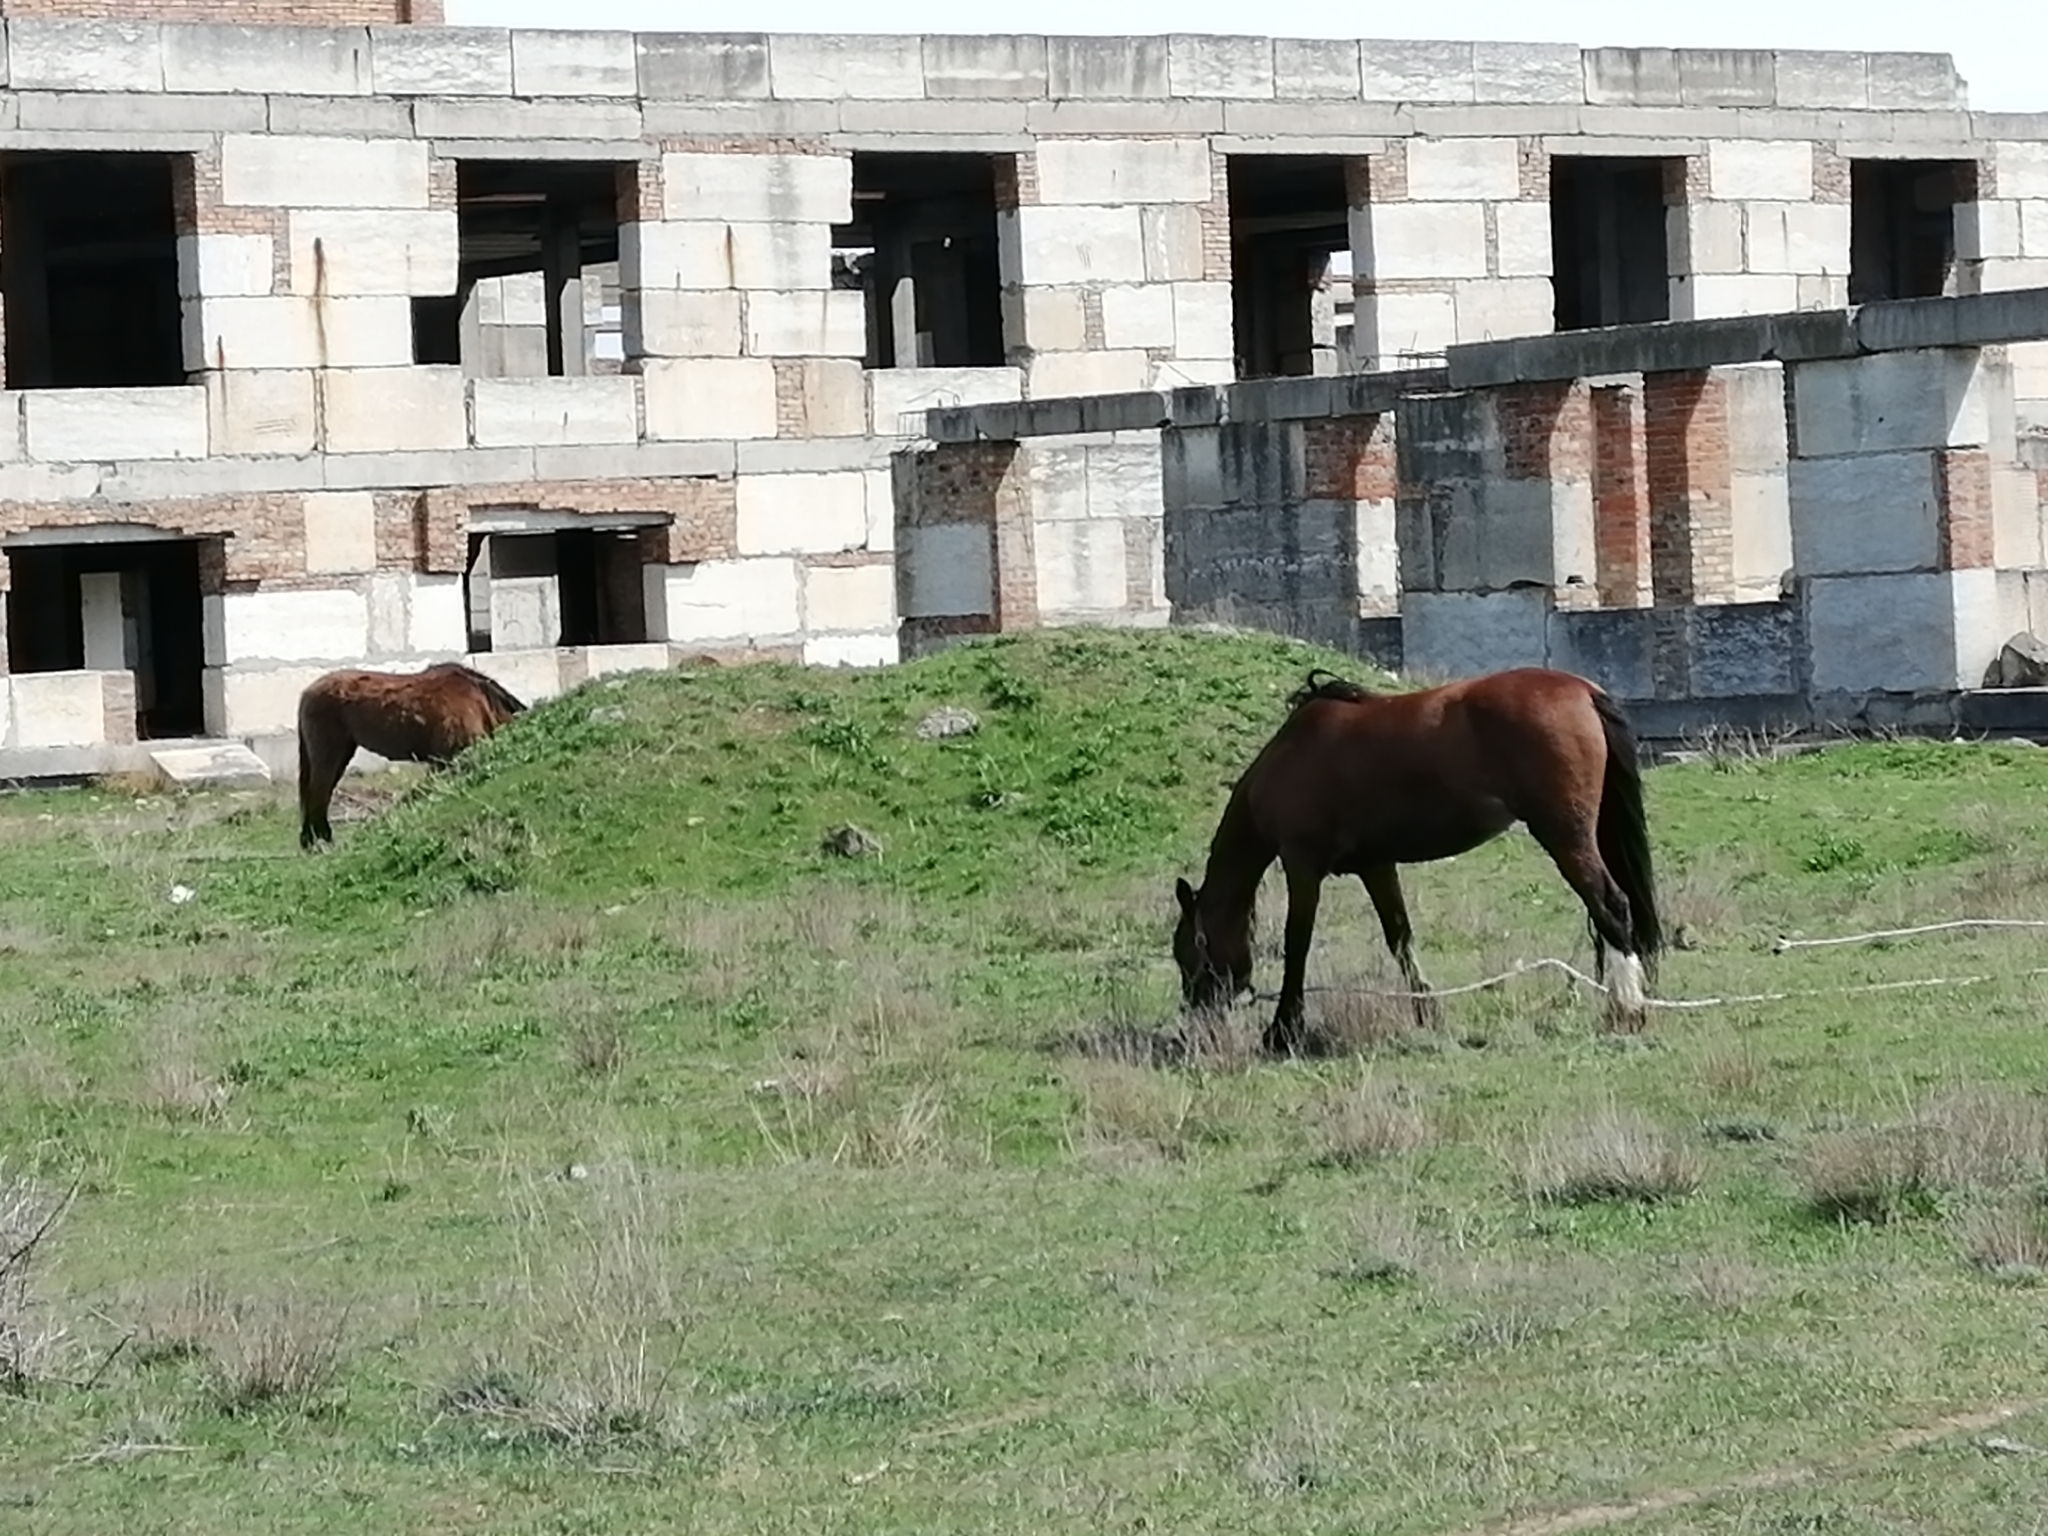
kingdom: Animalia
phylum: Chordata
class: Mammalia
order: Perissodactyla
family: Equidae
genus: Equus
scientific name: Equus caballus
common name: Horse
